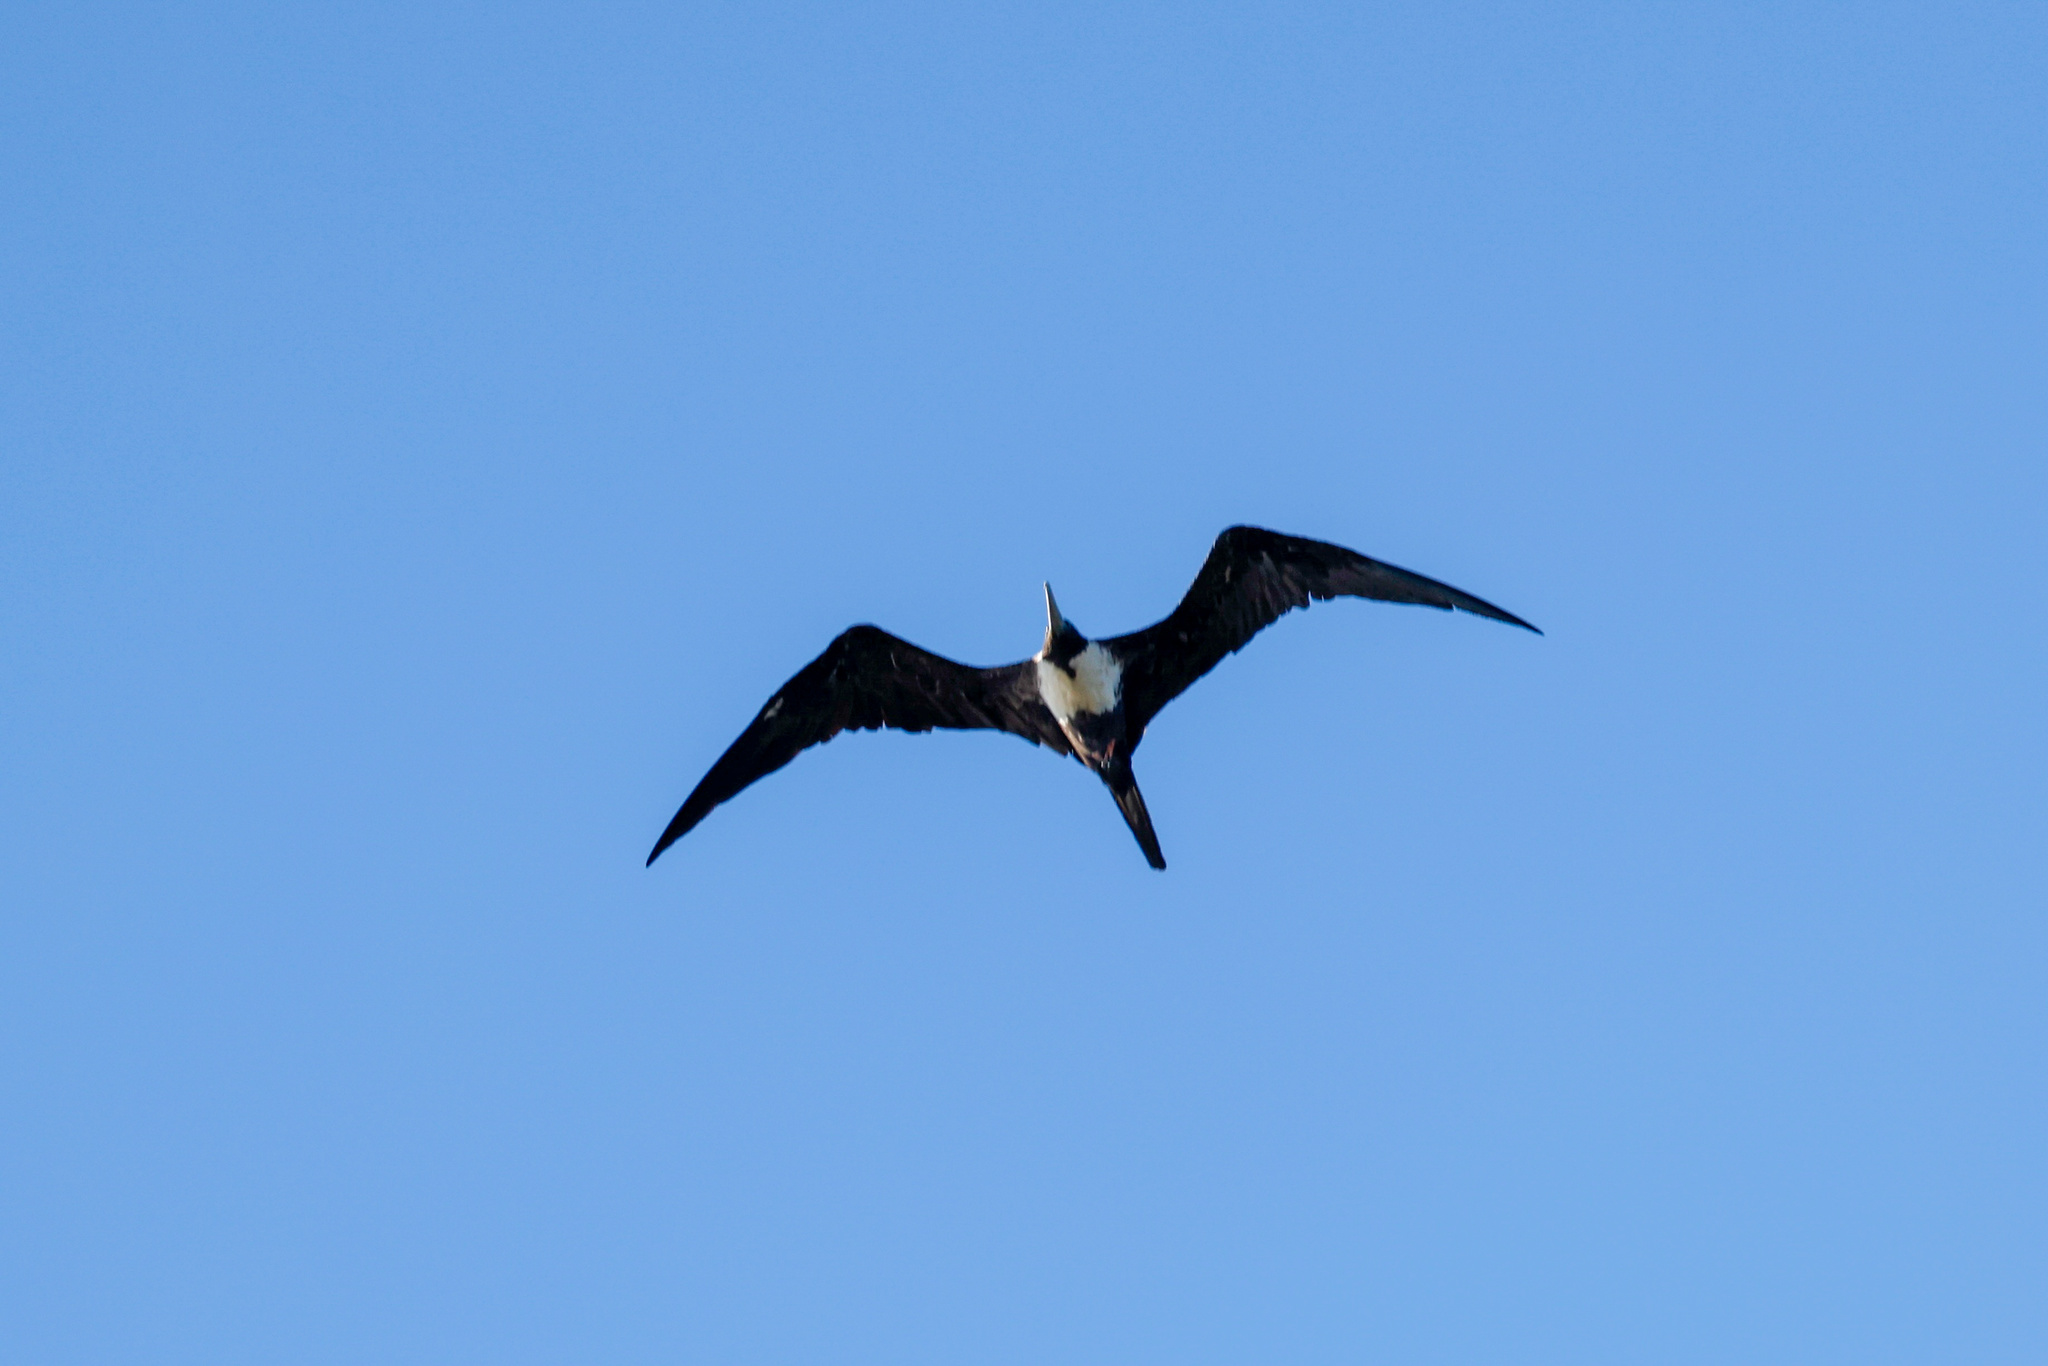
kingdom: Animalia
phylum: Chordata
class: Aves
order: Suliformes
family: Fregatidae
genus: Fregata
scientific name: Fregata magnificens
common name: Magnificent frigatebird
